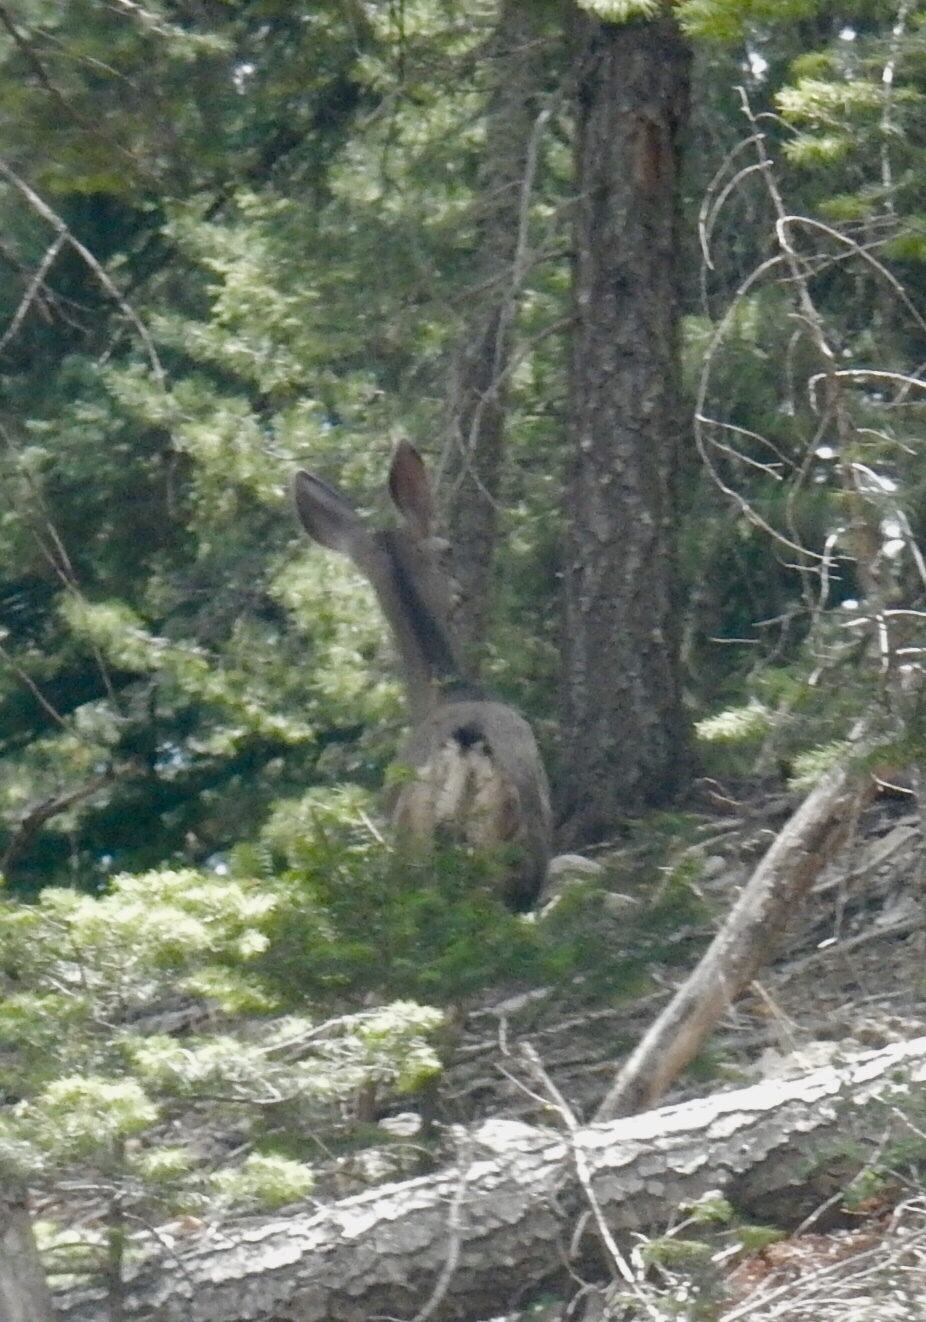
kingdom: Animalia
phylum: Chordata
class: Mammalia
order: Artiodactyla
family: Cervidae
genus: Odocoileus
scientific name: Odocoileus hemionus
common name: Mule deer
